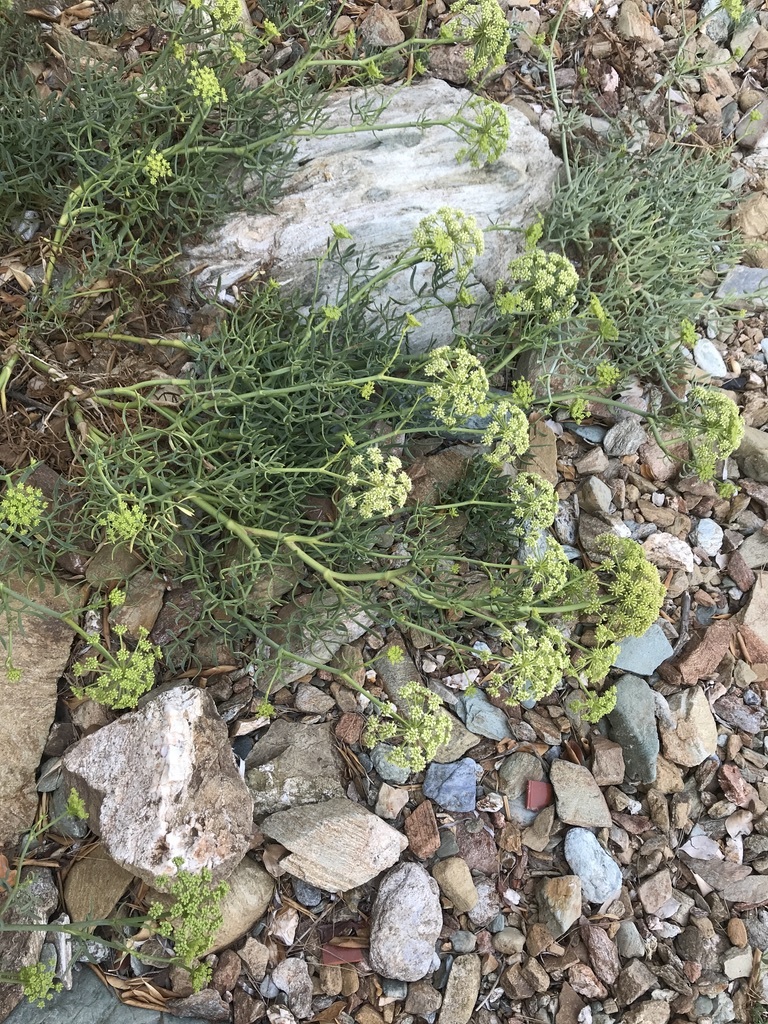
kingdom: Plantae
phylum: Tracheophyta
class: Magnoliopsida
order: Apiales
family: Apiaceae
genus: Crithmum
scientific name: Crithmum maritimum
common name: Rock samphire
